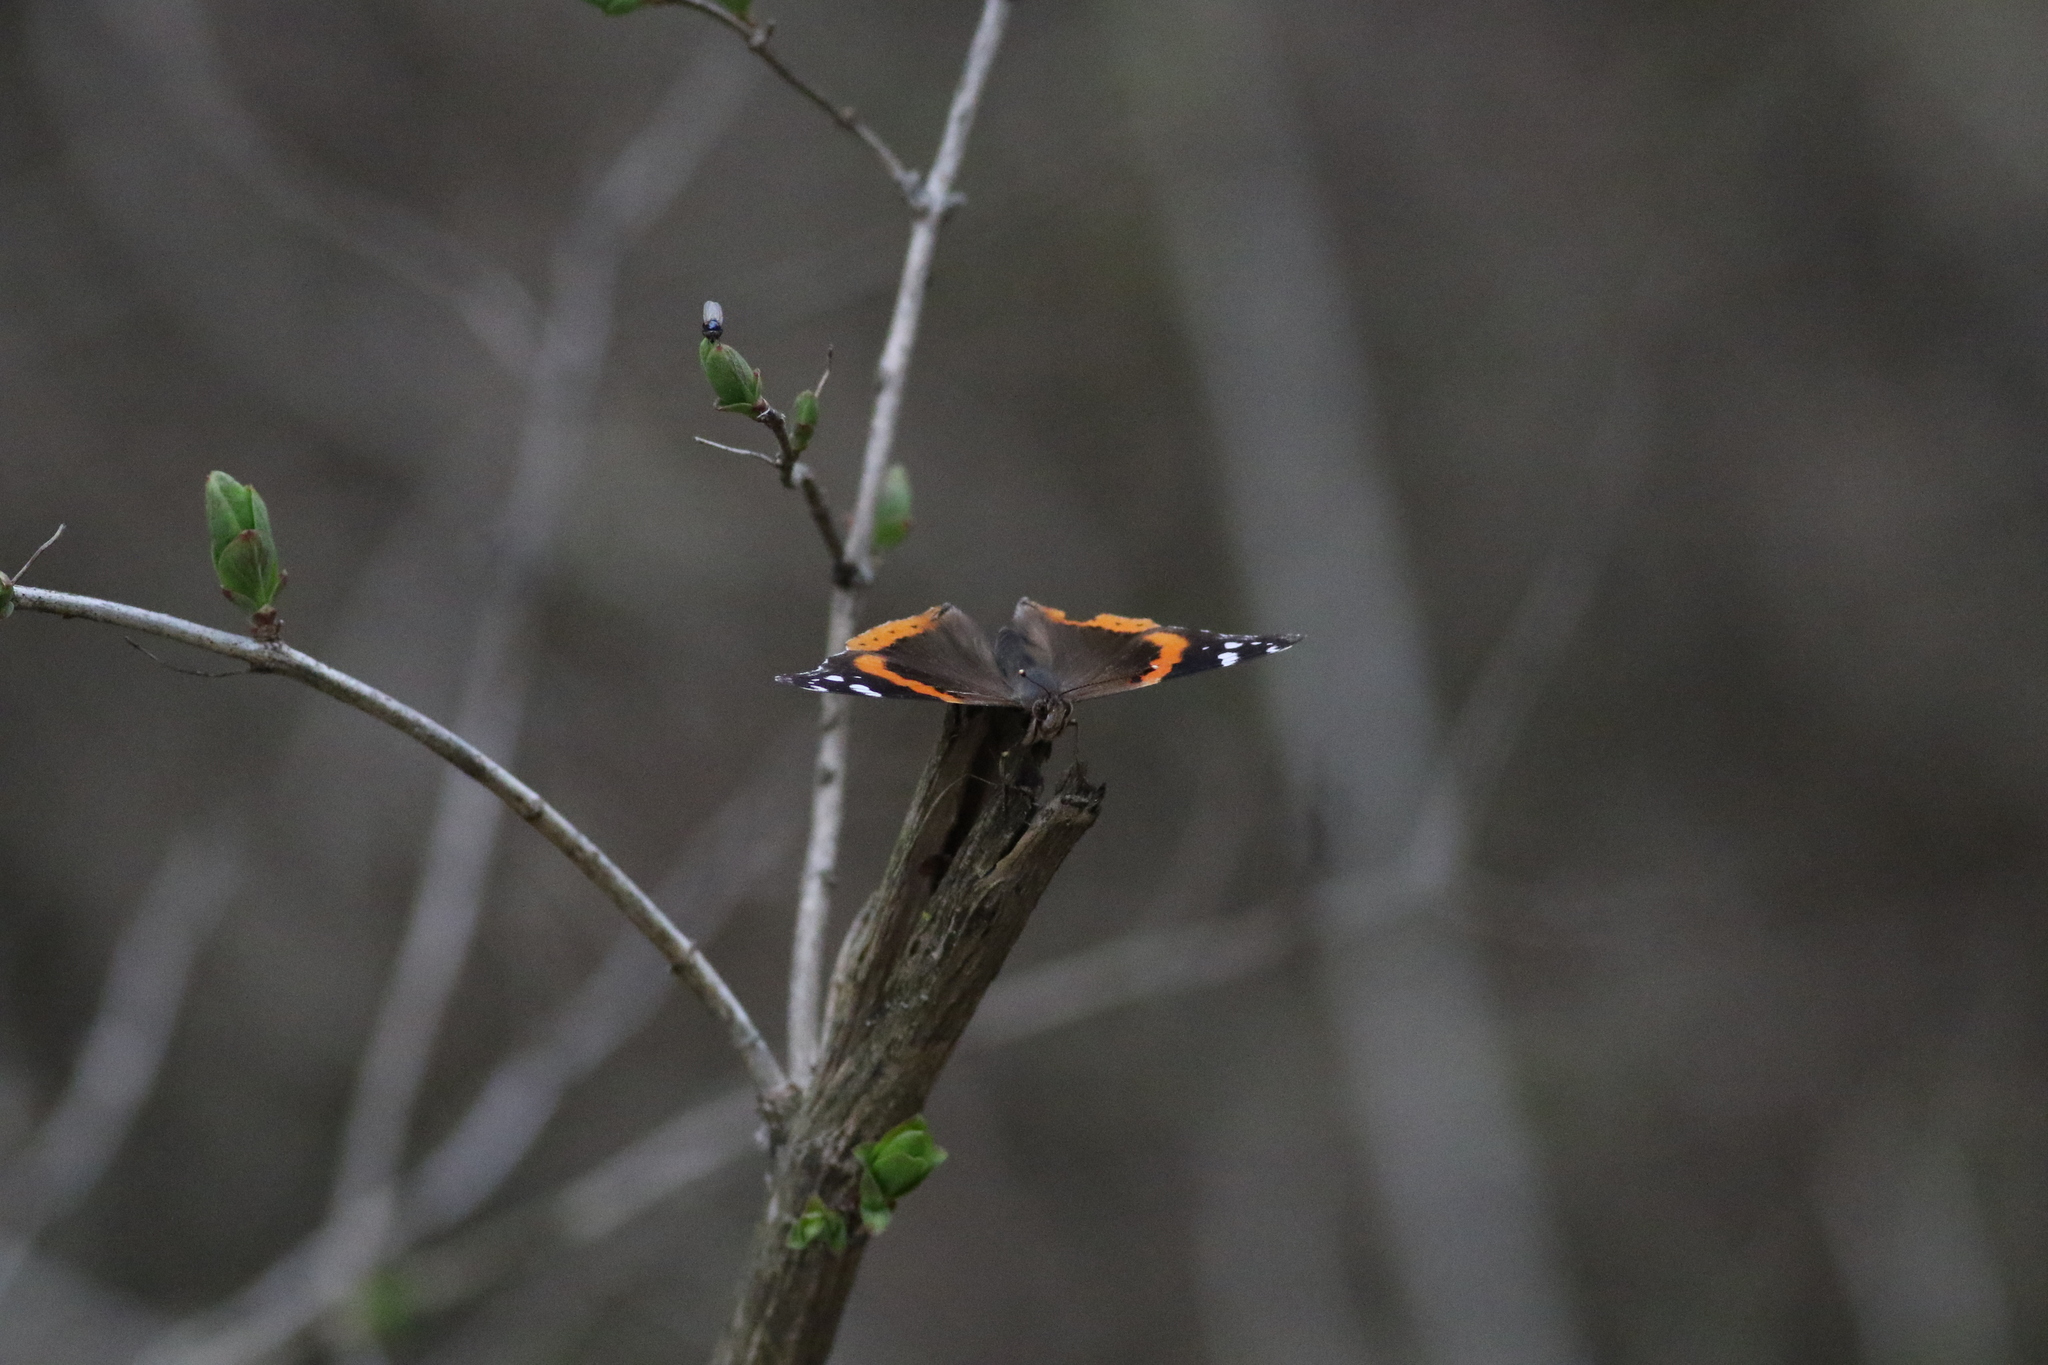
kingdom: Animalia
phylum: Arthropoda
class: Insecta
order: Lepidoptera
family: Nymphalidae
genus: Vanessa
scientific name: Vanessa atalanta
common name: Red admiral
